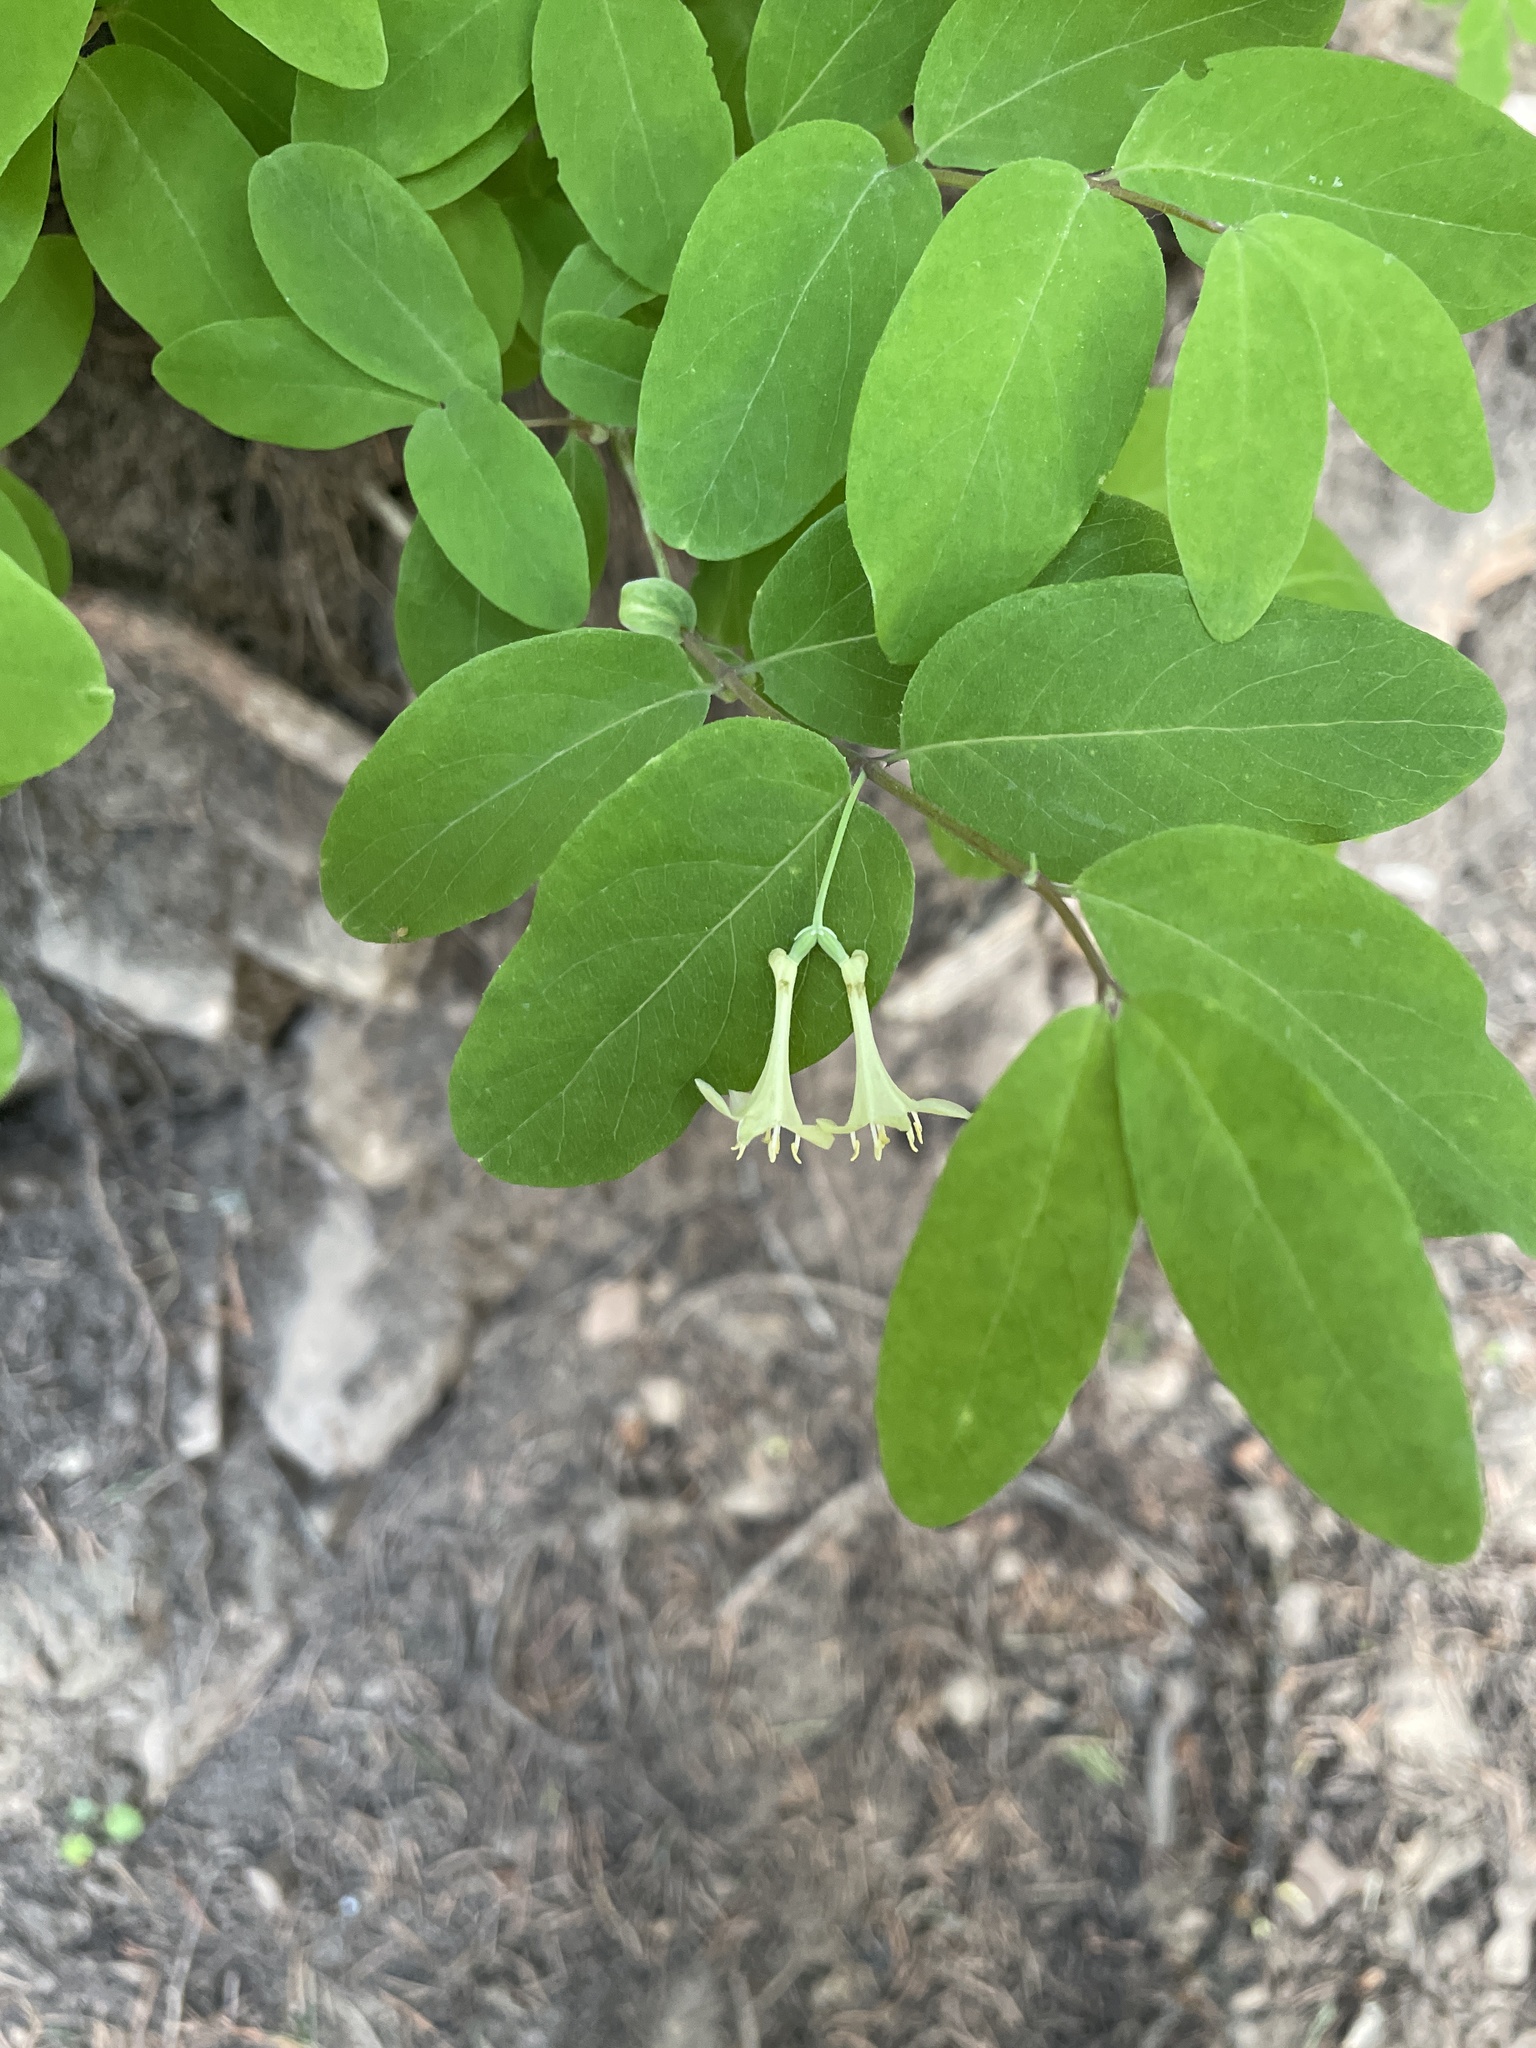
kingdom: Plantae
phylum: Tracheophyta
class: Magnoliopsida
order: Dipsacales
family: Caprifoliaceae
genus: Lonicera
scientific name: Lonicera utahensis
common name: Utah honeysuckle
